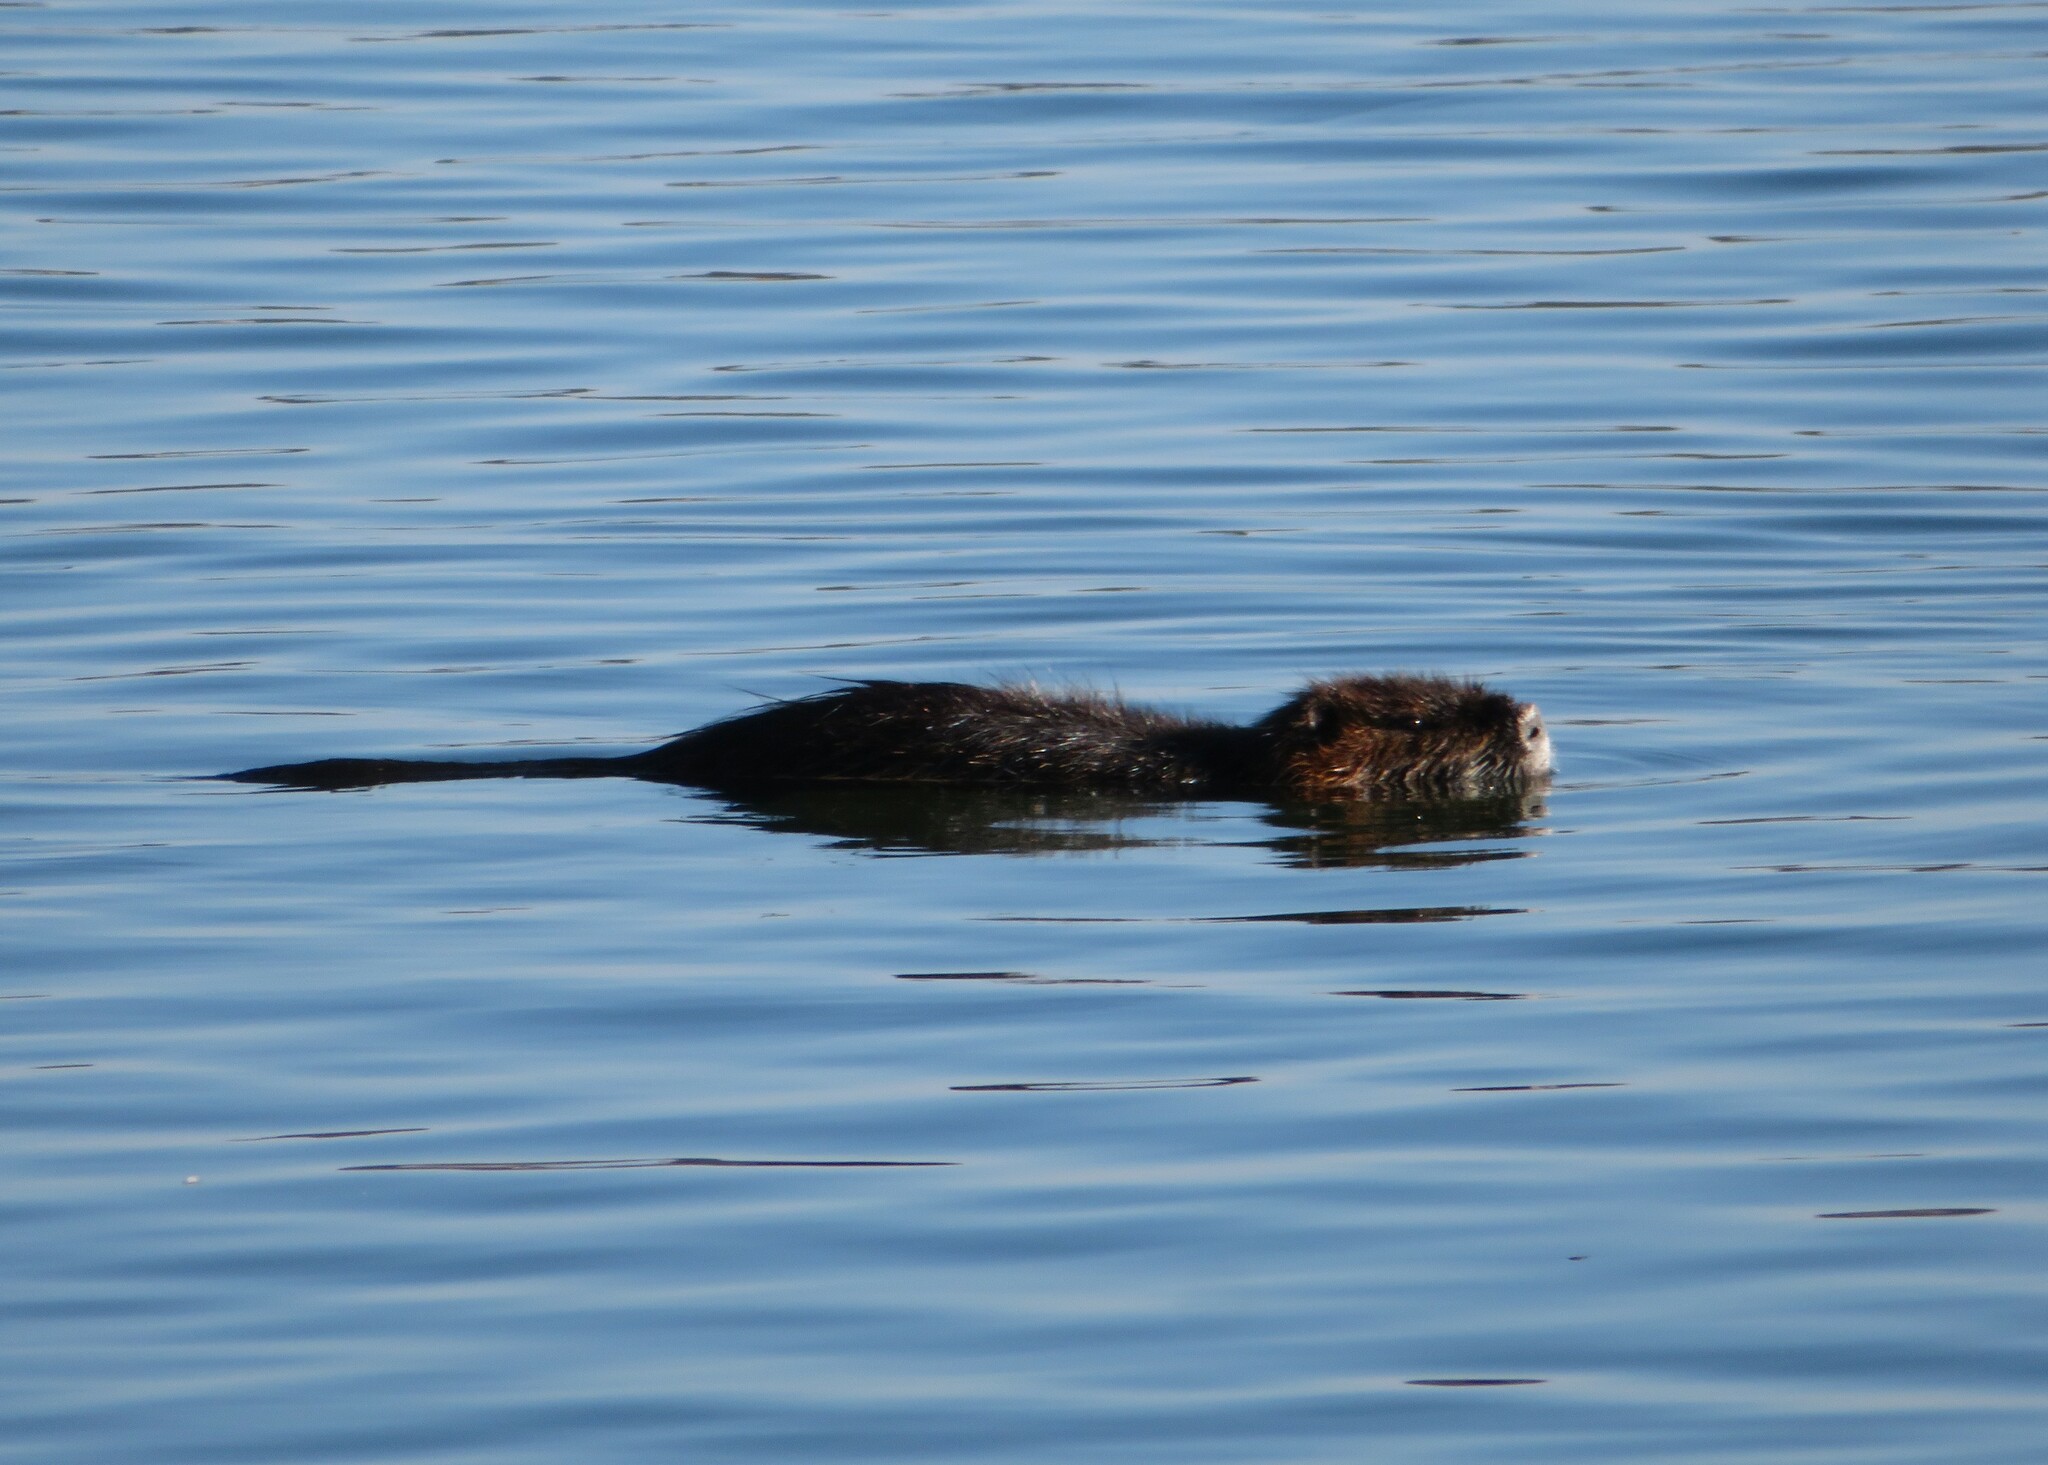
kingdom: Animalia
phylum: Chordata
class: Mammalia
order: Rodentia
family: Myocastoridae
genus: Myocastor
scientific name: Myocastor coypus
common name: Coypu
